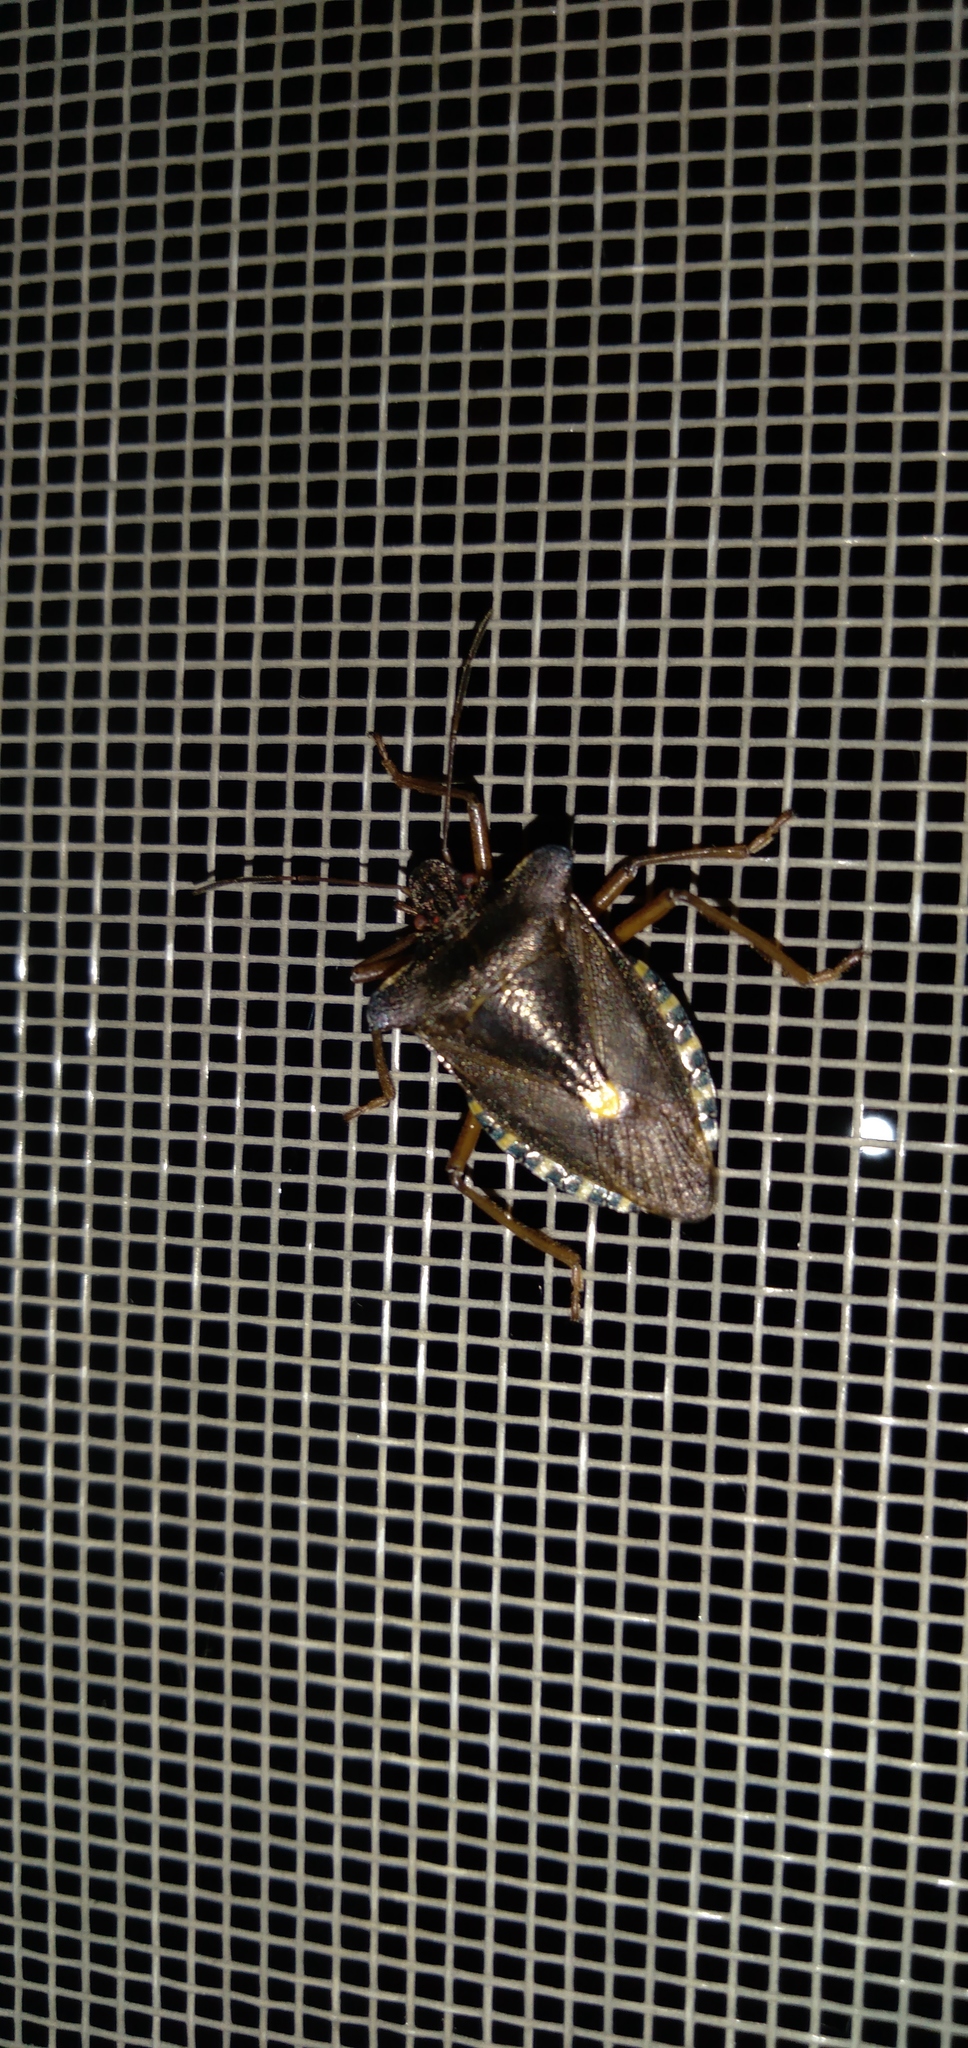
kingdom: Animalia
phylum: Arthropoda
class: Insecta
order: Hemiptera
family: Pentatomidae
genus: Pentatoma
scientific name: Pentatoma rufipes
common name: Forest bug
